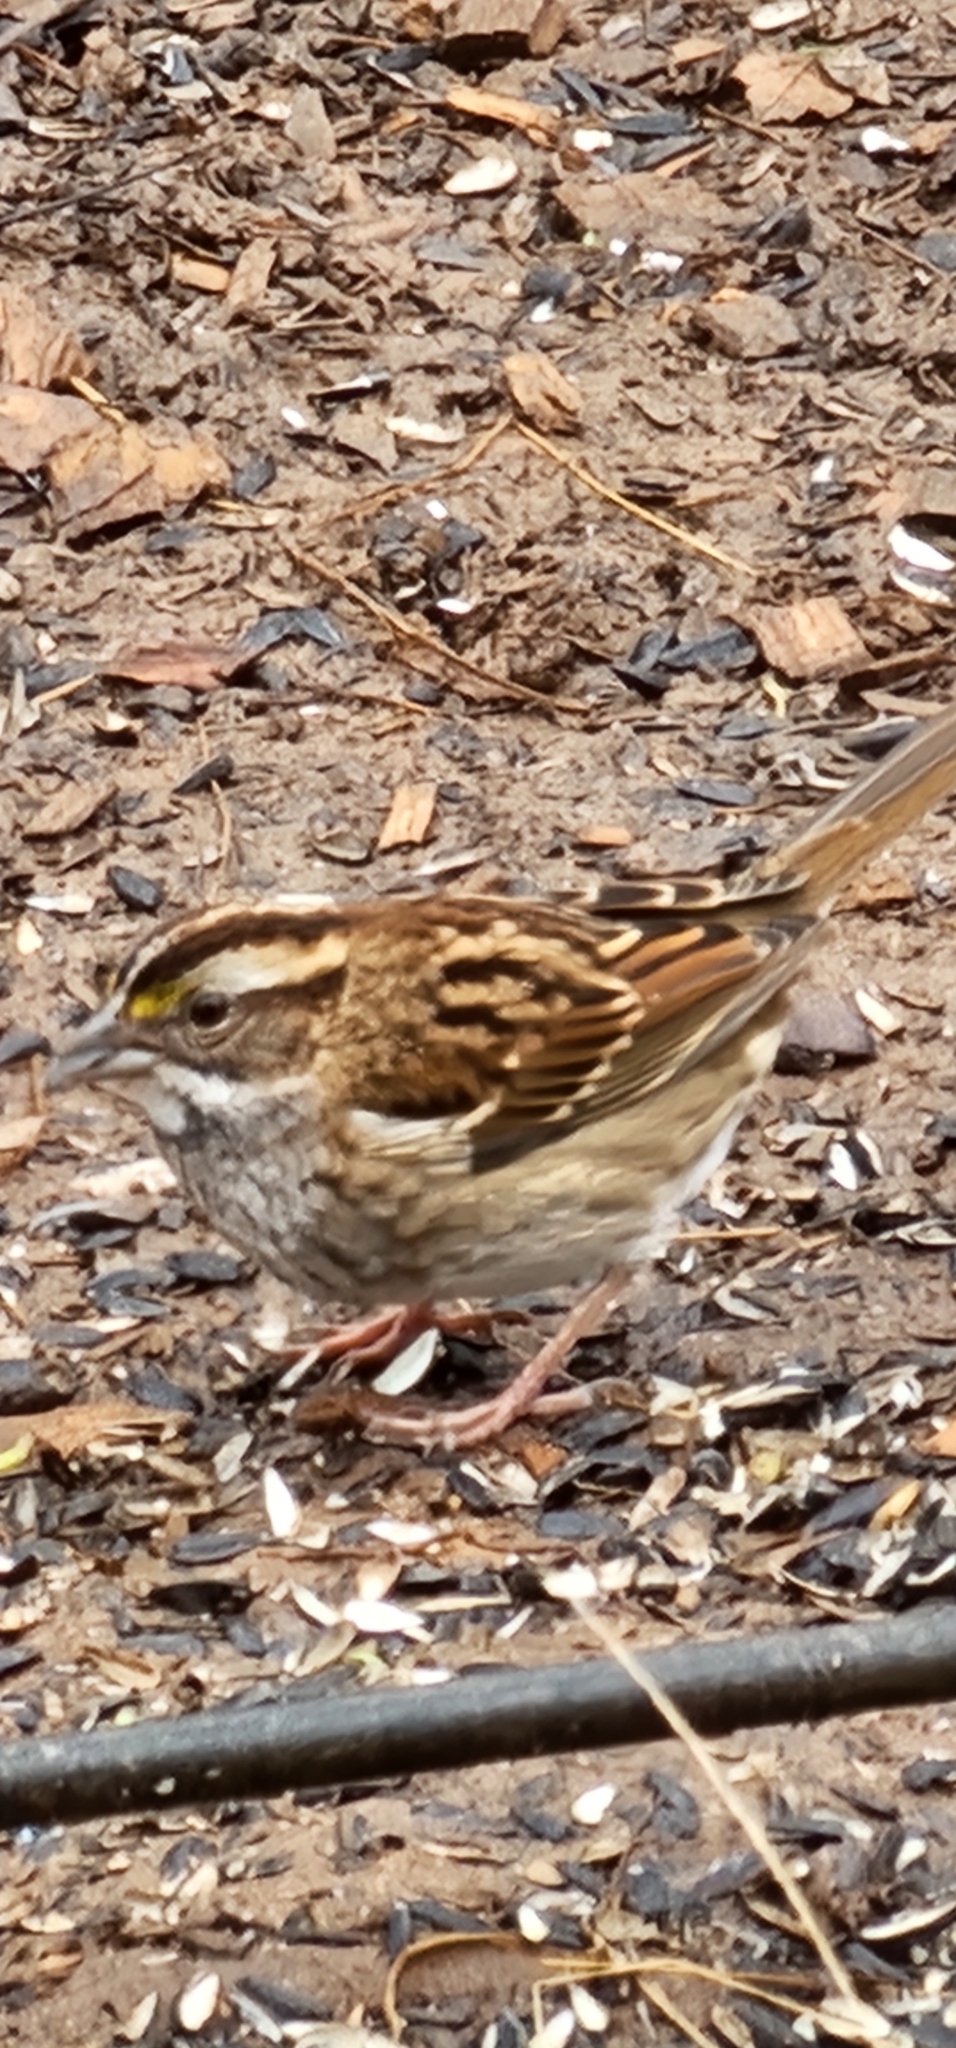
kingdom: Animalia
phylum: Chordata
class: Aves
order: Passeriformes
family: Passerellidae
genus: Zonotrichia
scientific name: Zonotrichia albicollis
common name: White-throated sparrow
